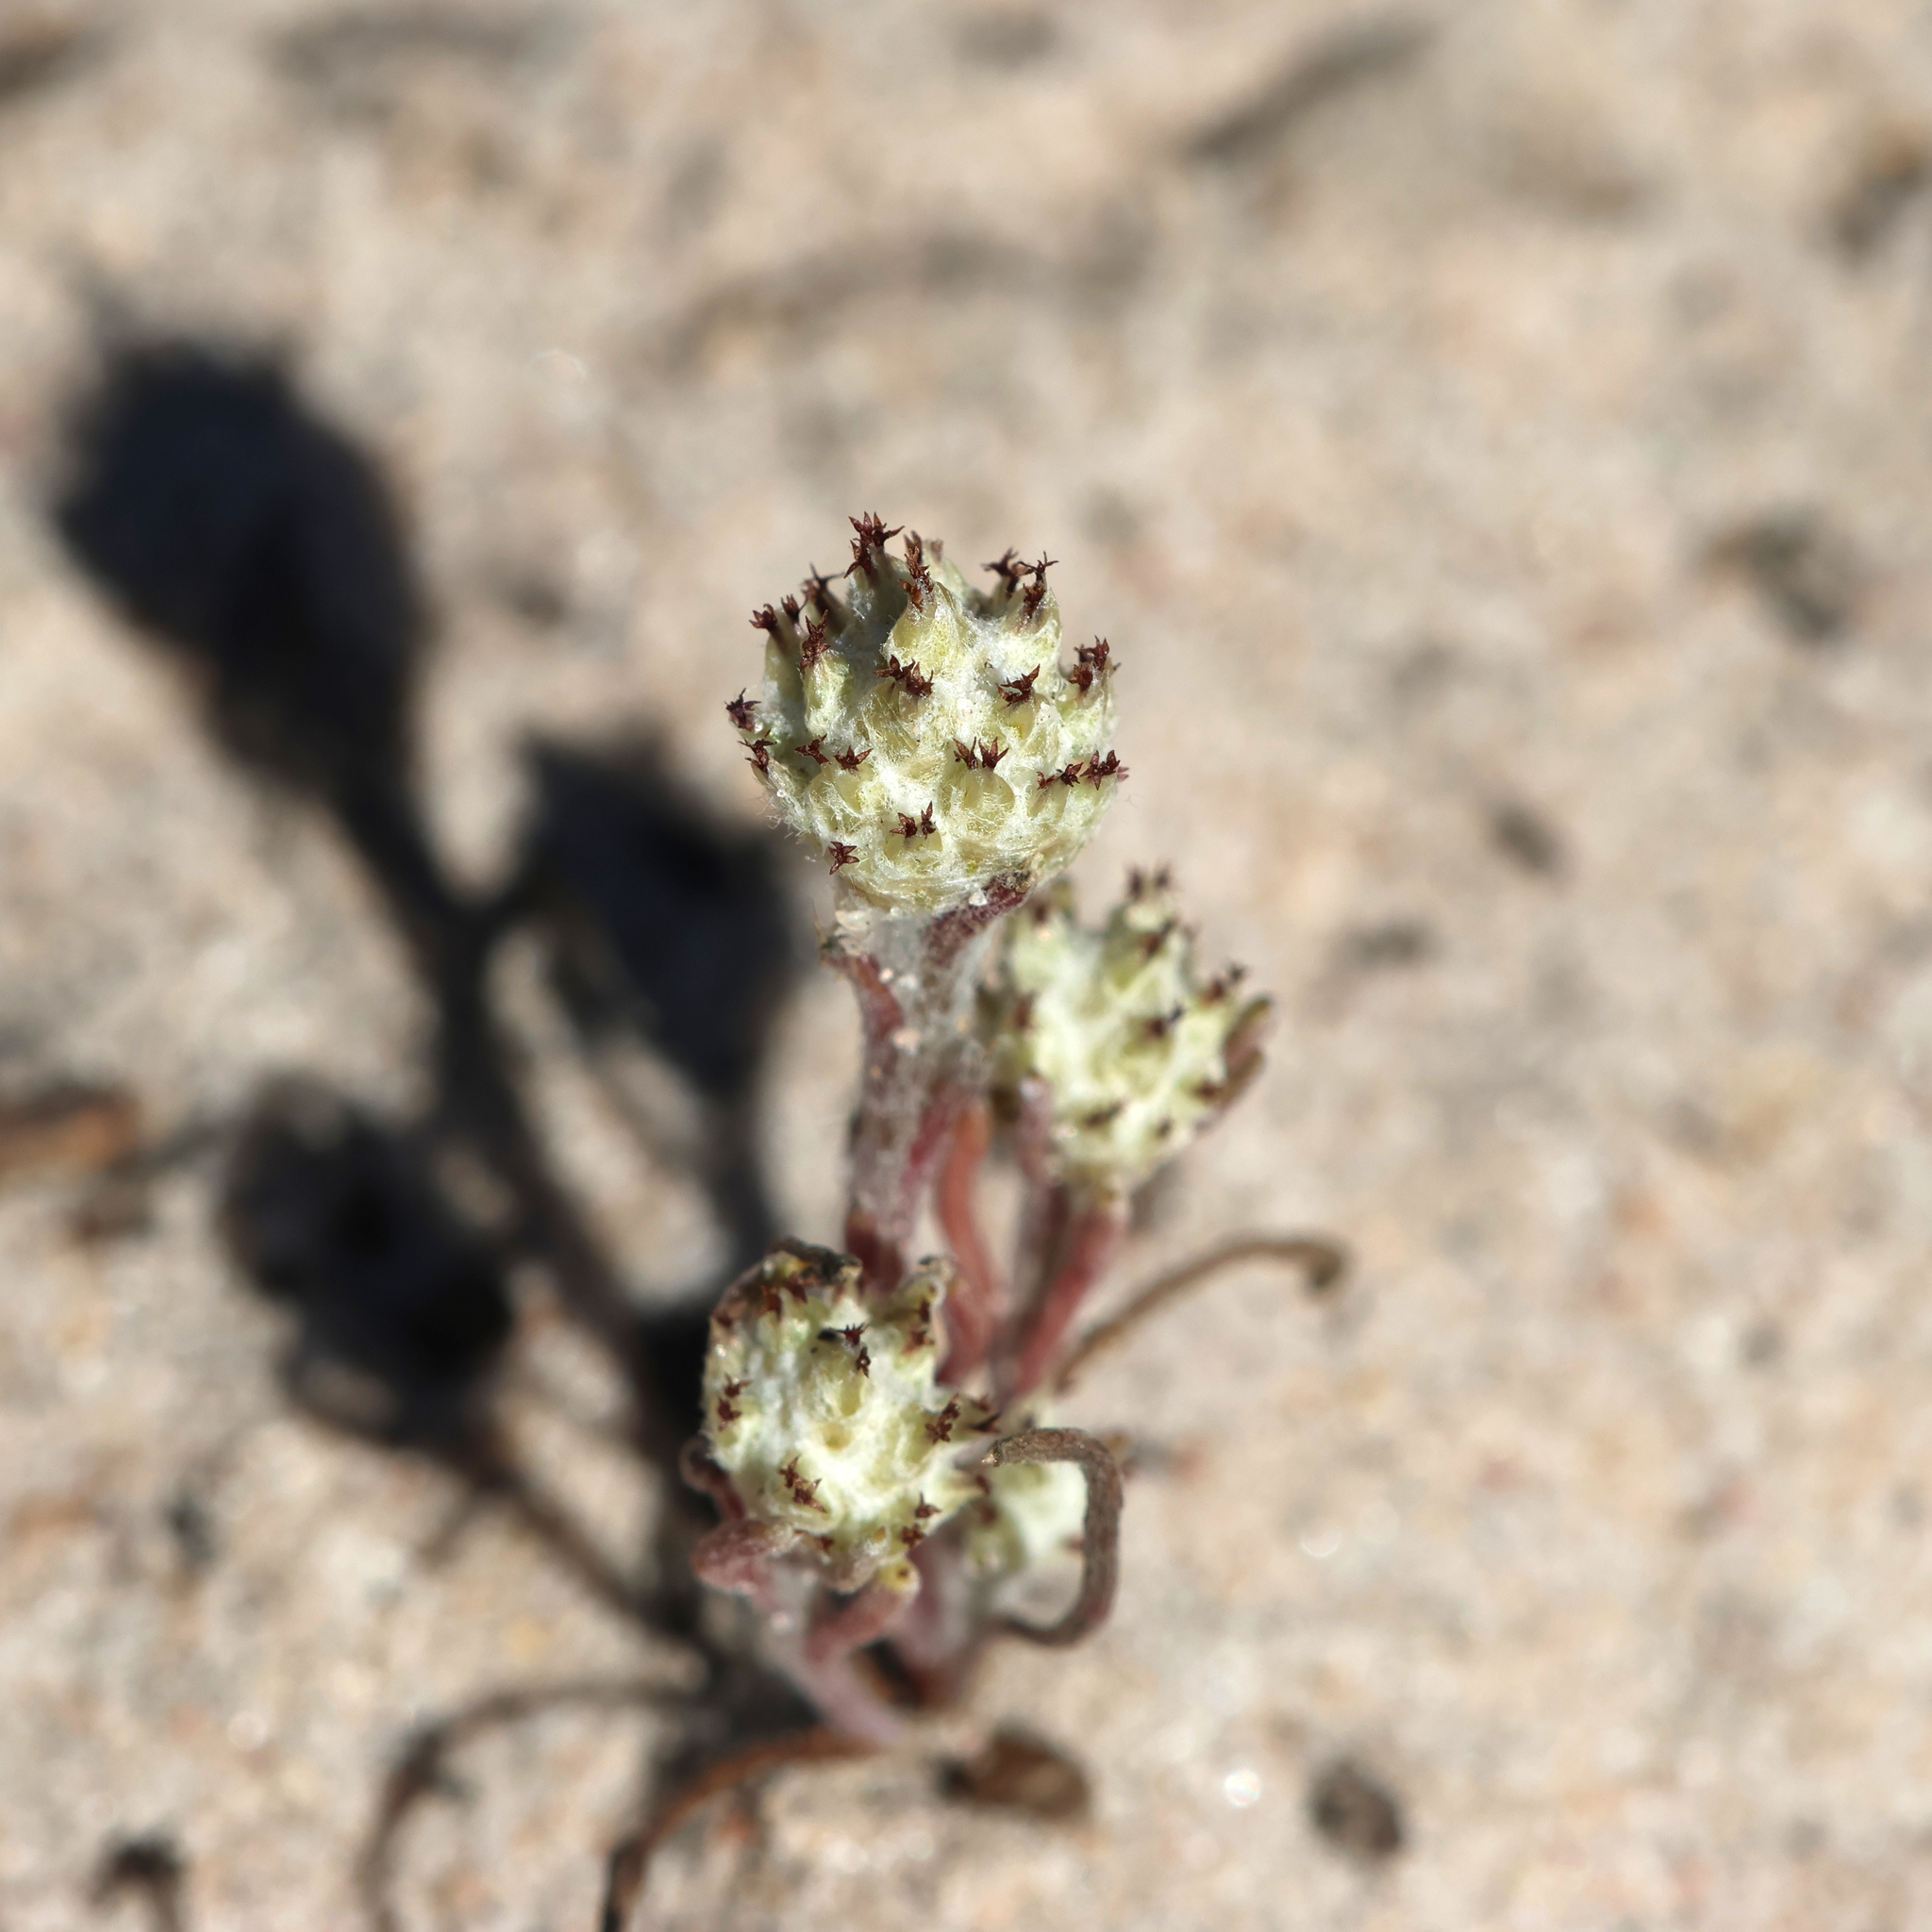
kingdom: Plantae
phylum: Tracheophyta
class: Magnoliopsida
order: Asterales
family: Asteraceae
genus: Blennospora
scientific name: Blennospora drummondii
